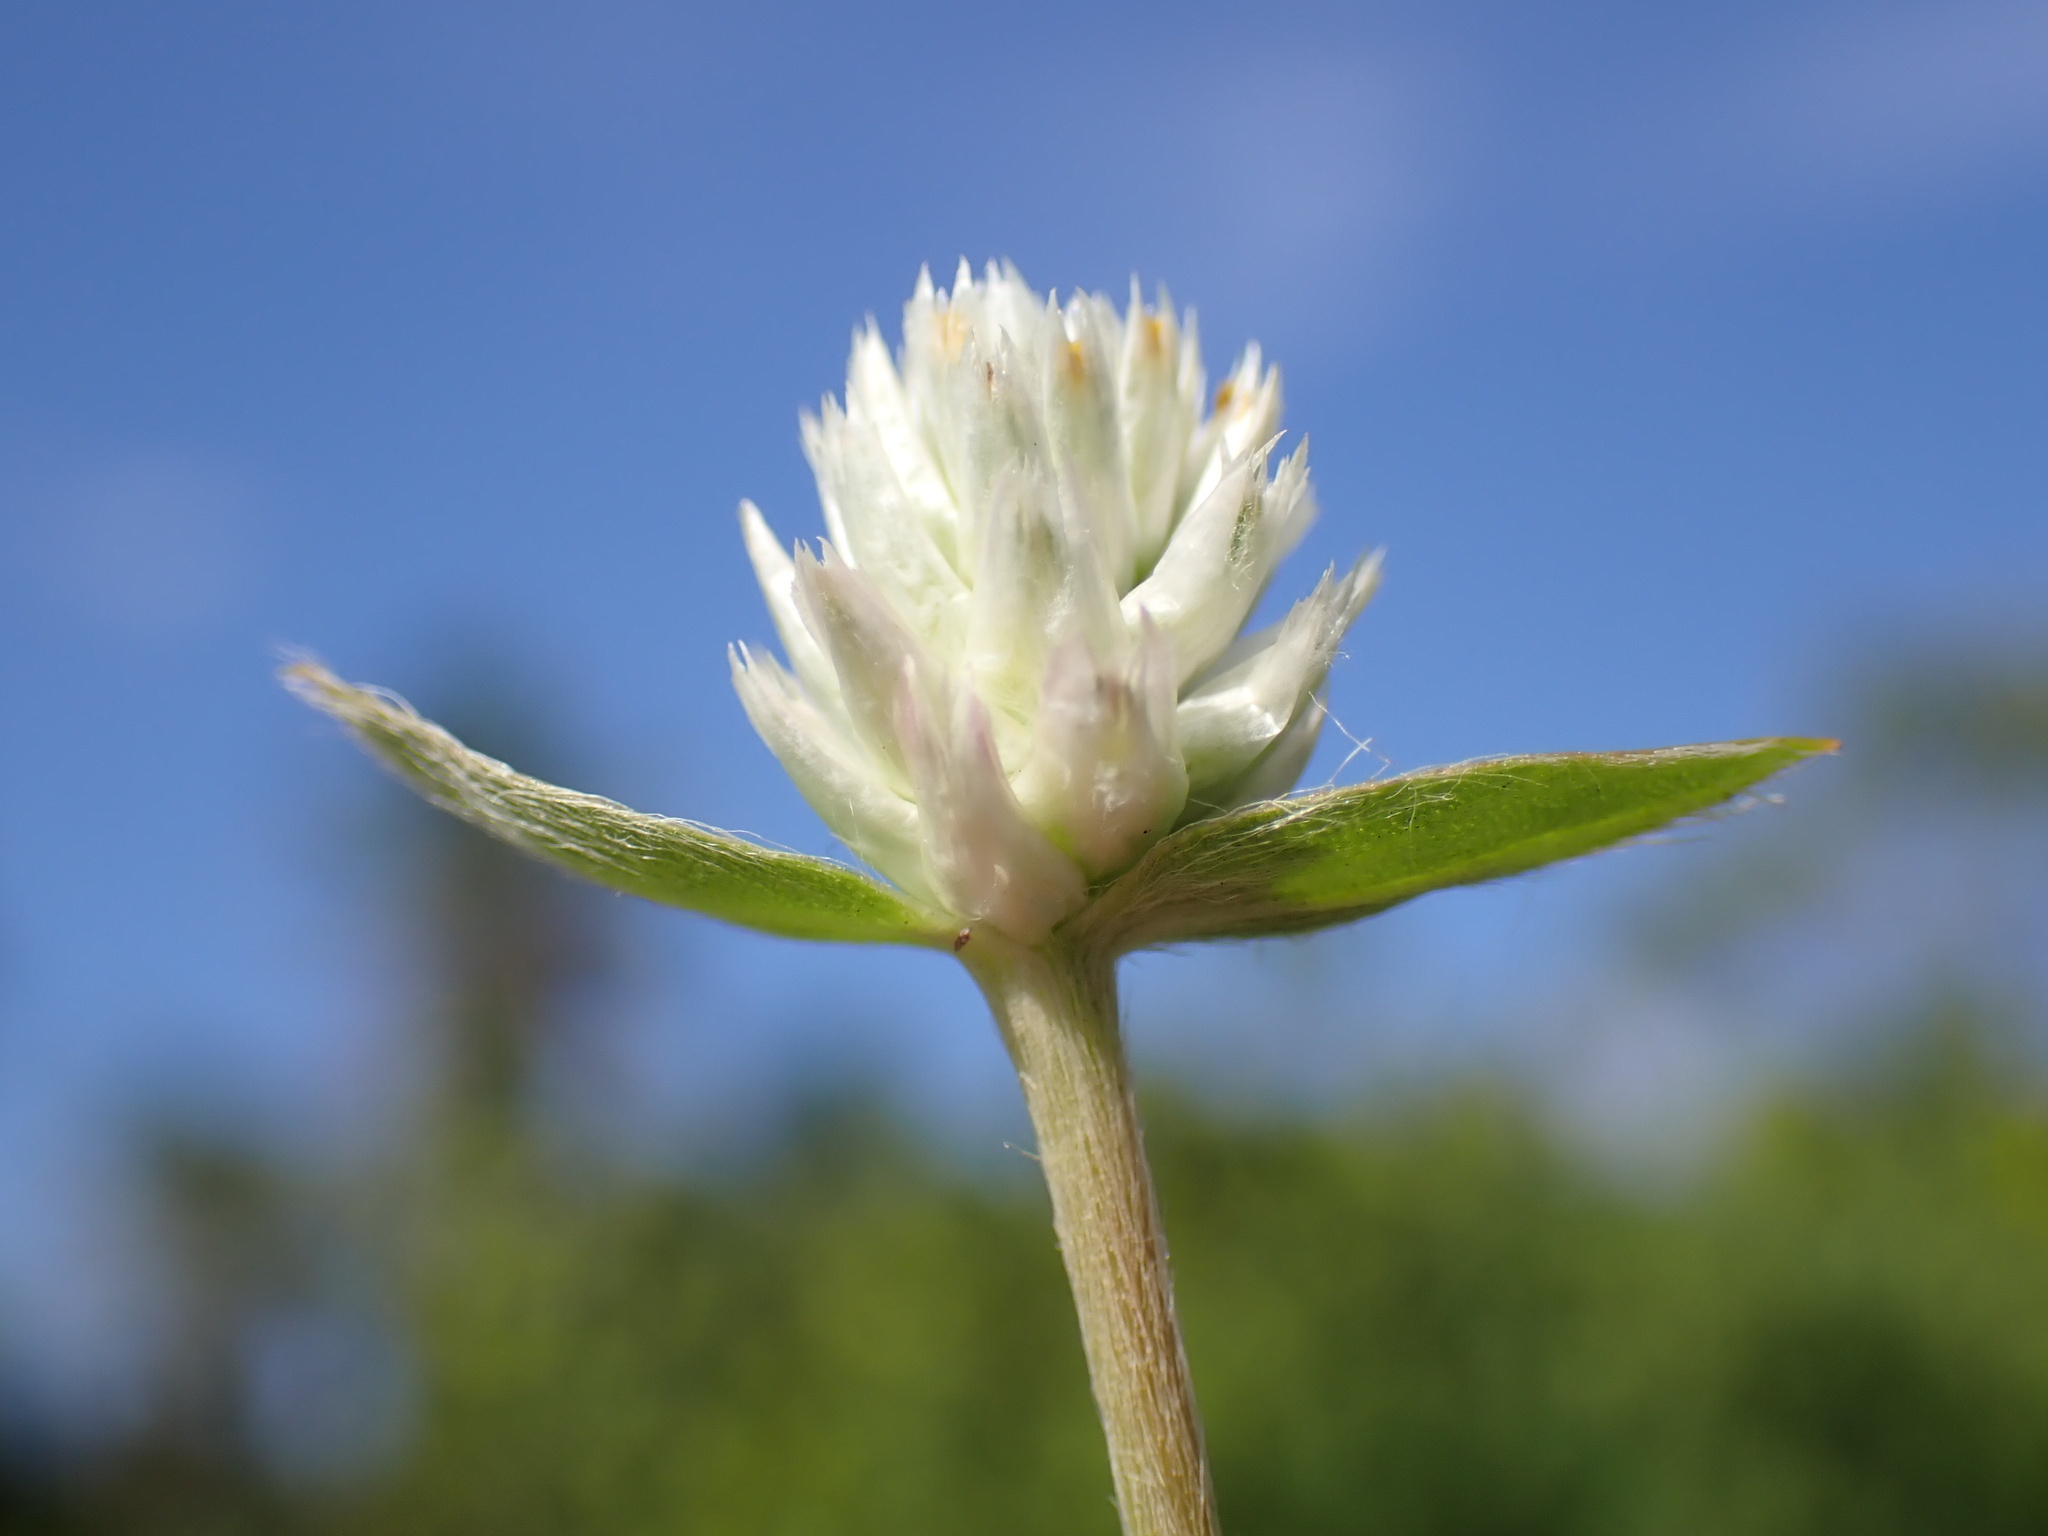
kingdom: Plantae
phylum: Tracheophyta
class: Magnoliopsida
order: Caryophyllales
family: Amaranthaceae
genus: Gomphrena
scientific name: Gomphrena celosioides
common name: Gomphrena-weed
